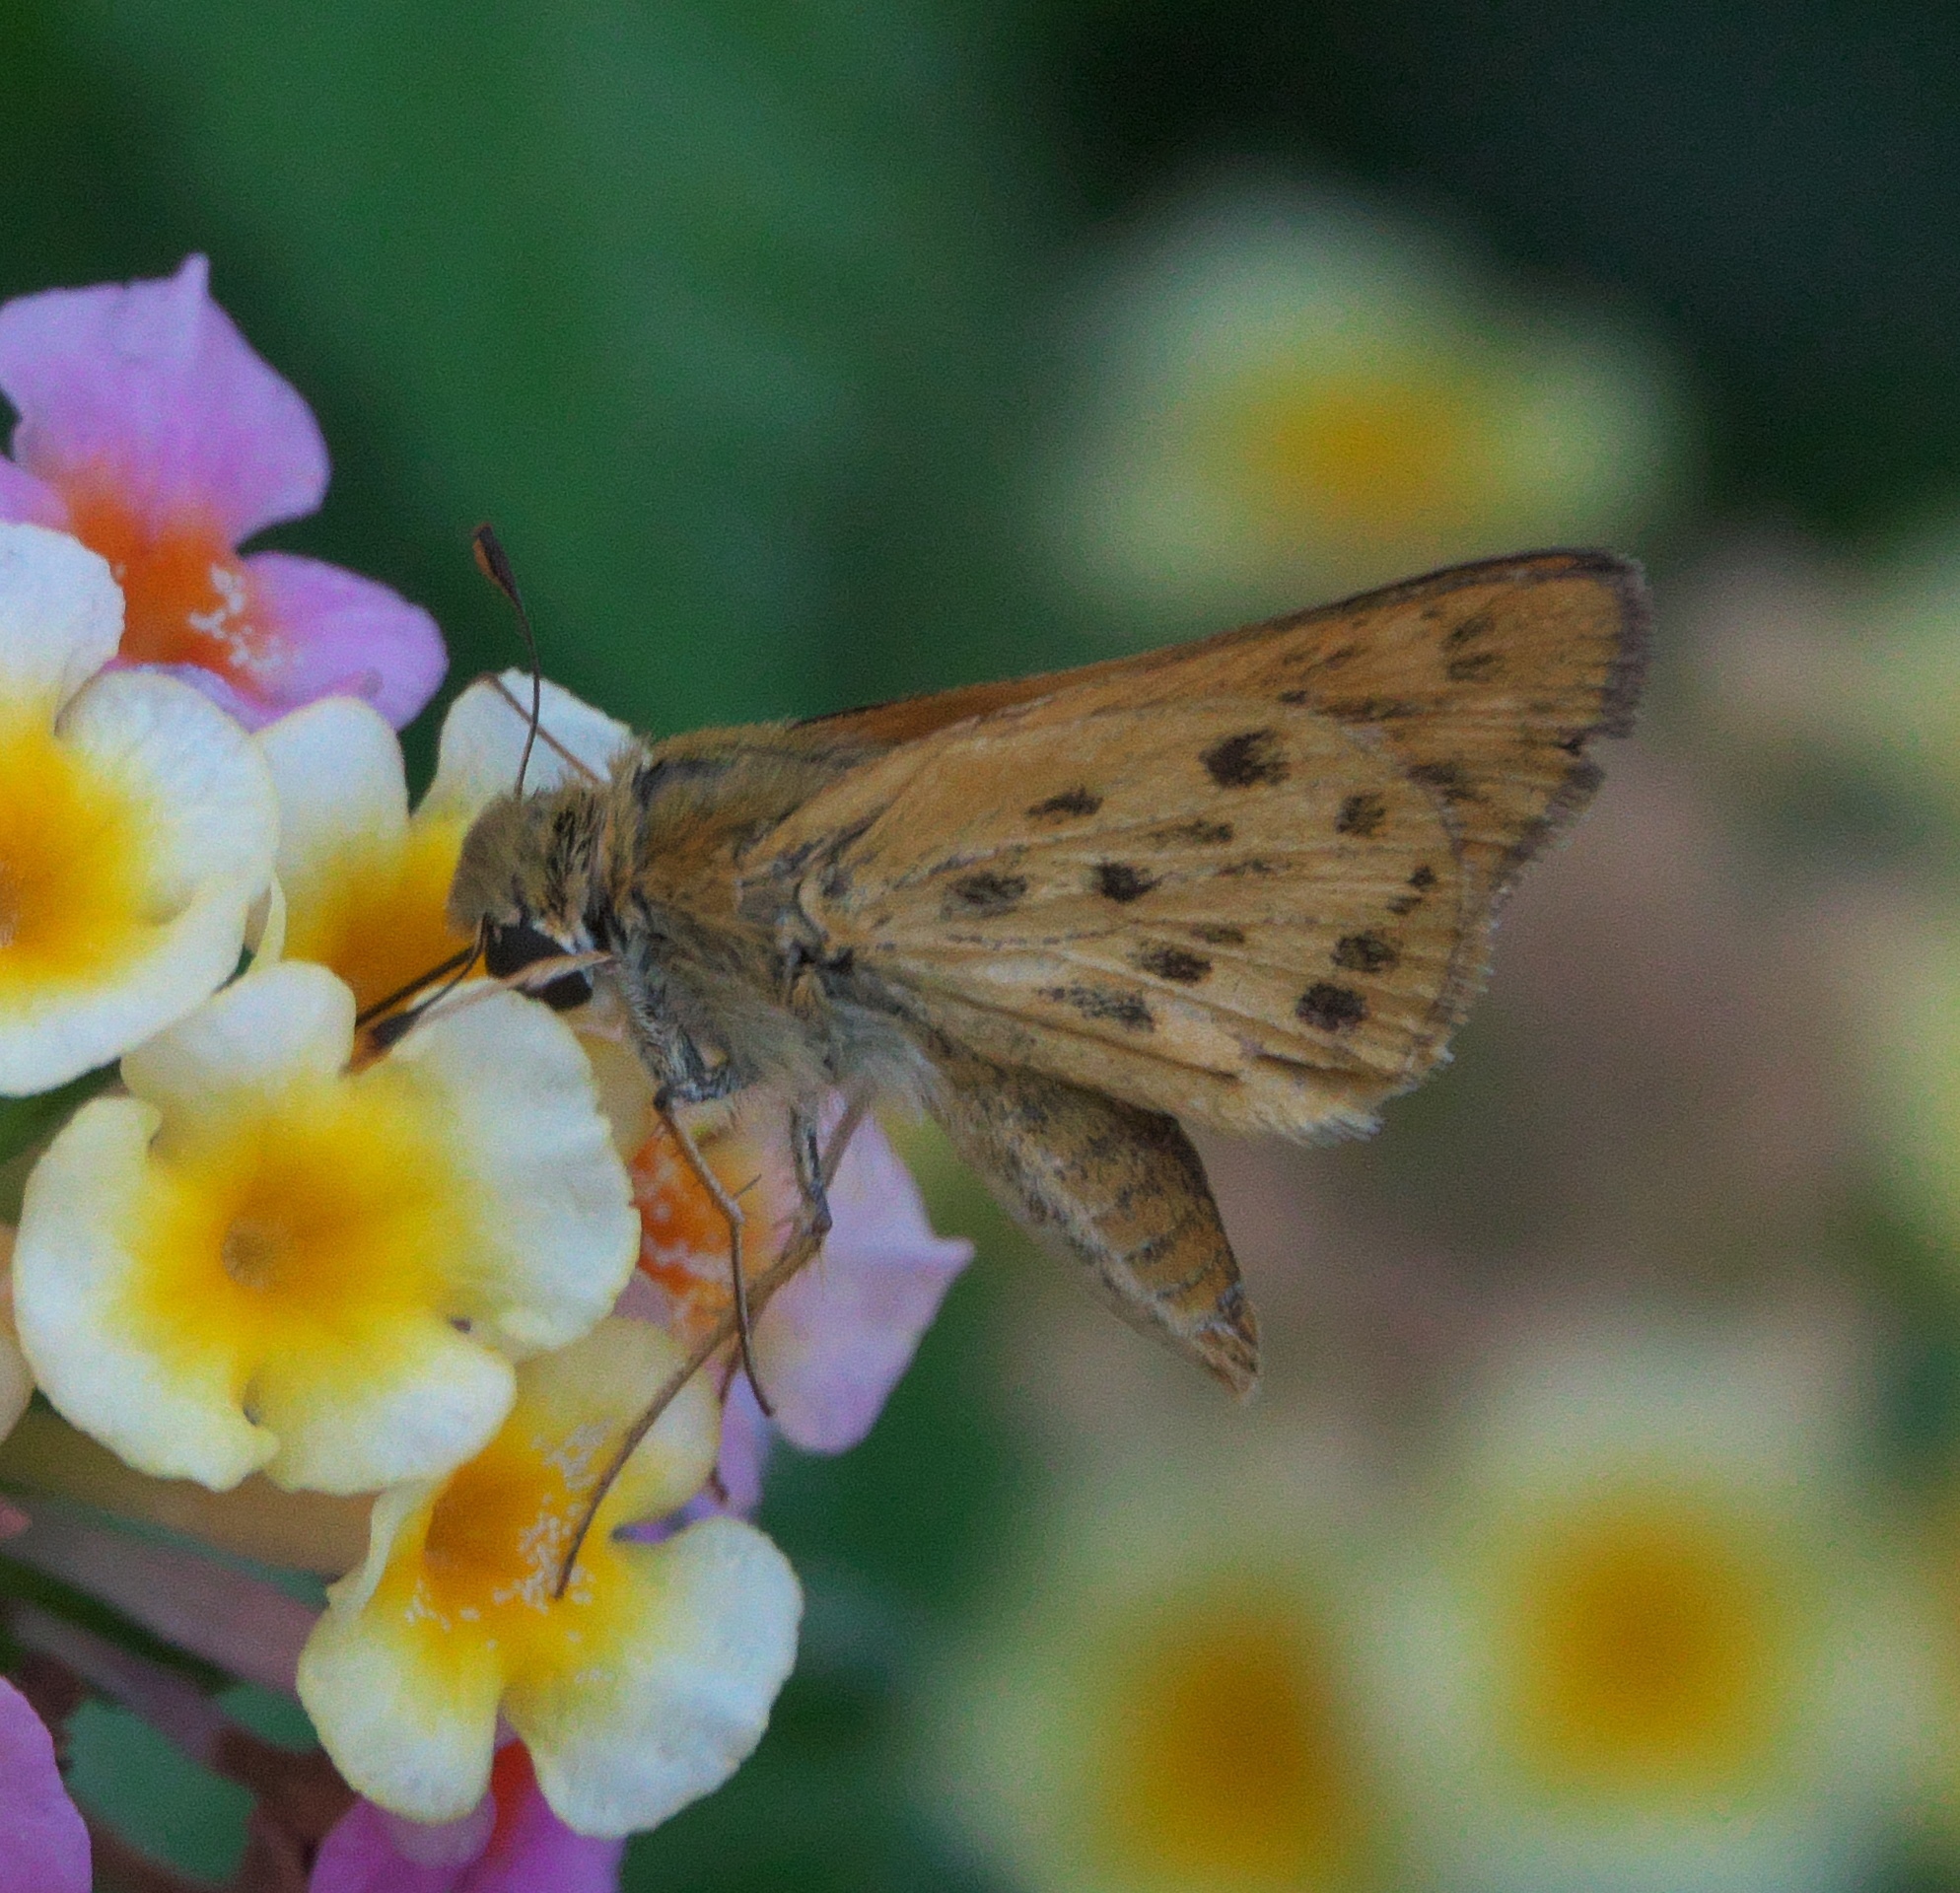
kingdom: Animalia
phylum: Arthropoda
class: Insecta
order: Lepidoptera
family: Hesperiidae
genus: Hylephila
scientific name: Hylephila phyleus
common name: Fiery skipper
